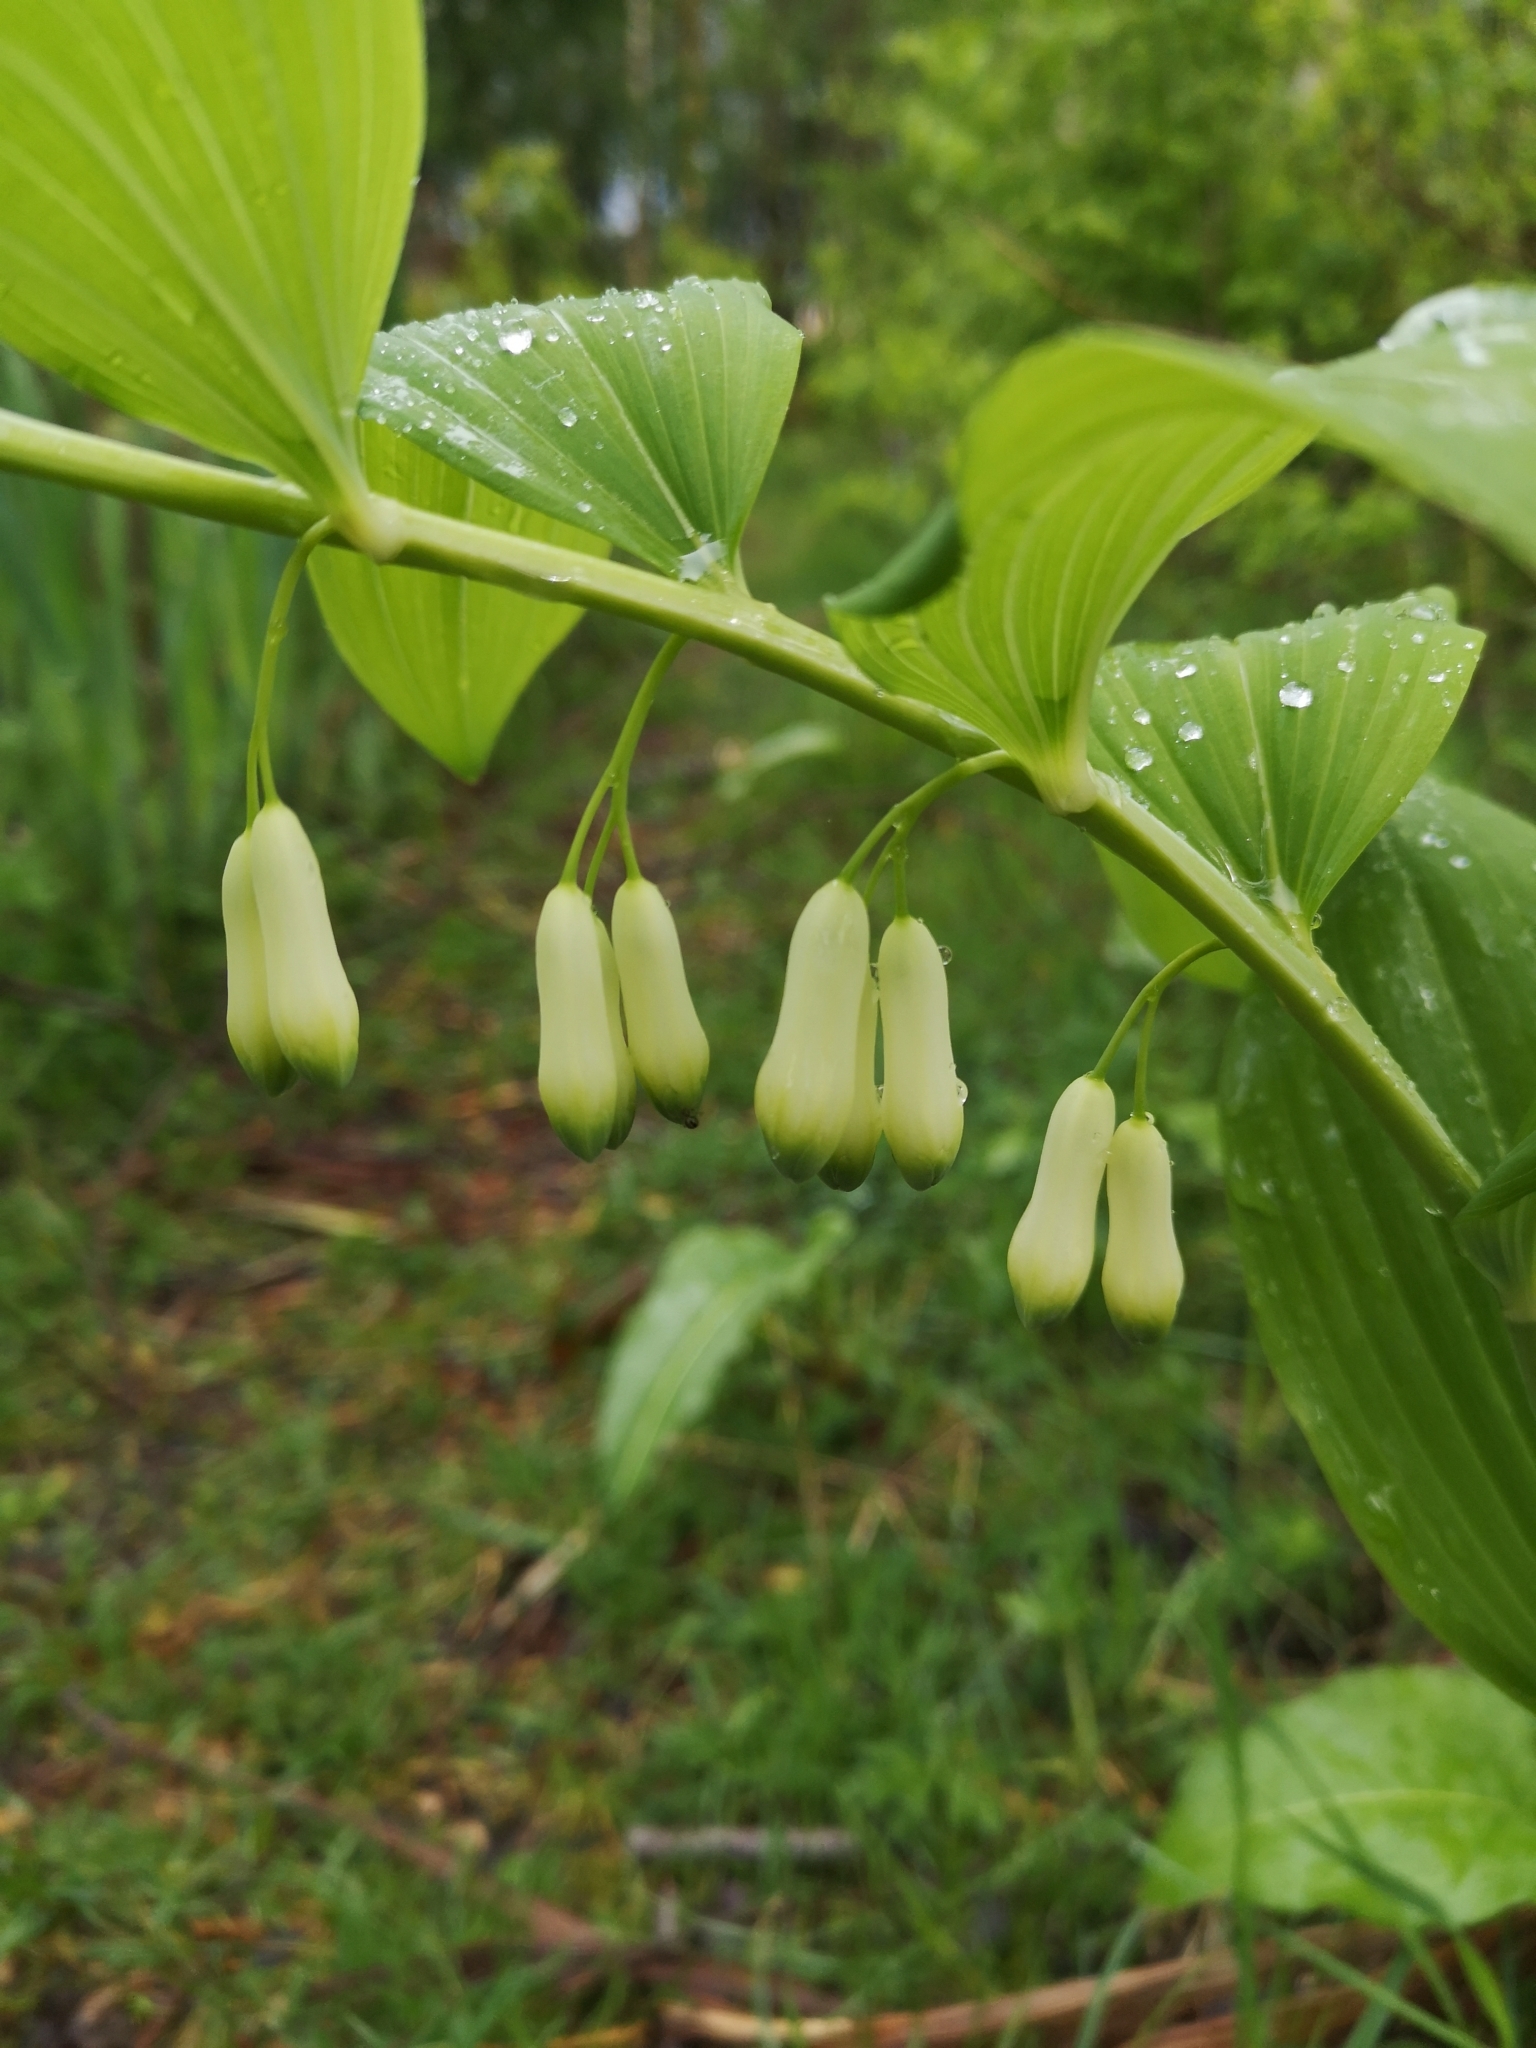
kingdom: Plantae
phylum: Tracheophyta
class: Liliopsida
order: Asparagales
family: Asparagaceae
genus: Polygonatum
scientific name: Polygonatum multiflorum
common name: Solomon's-seal
